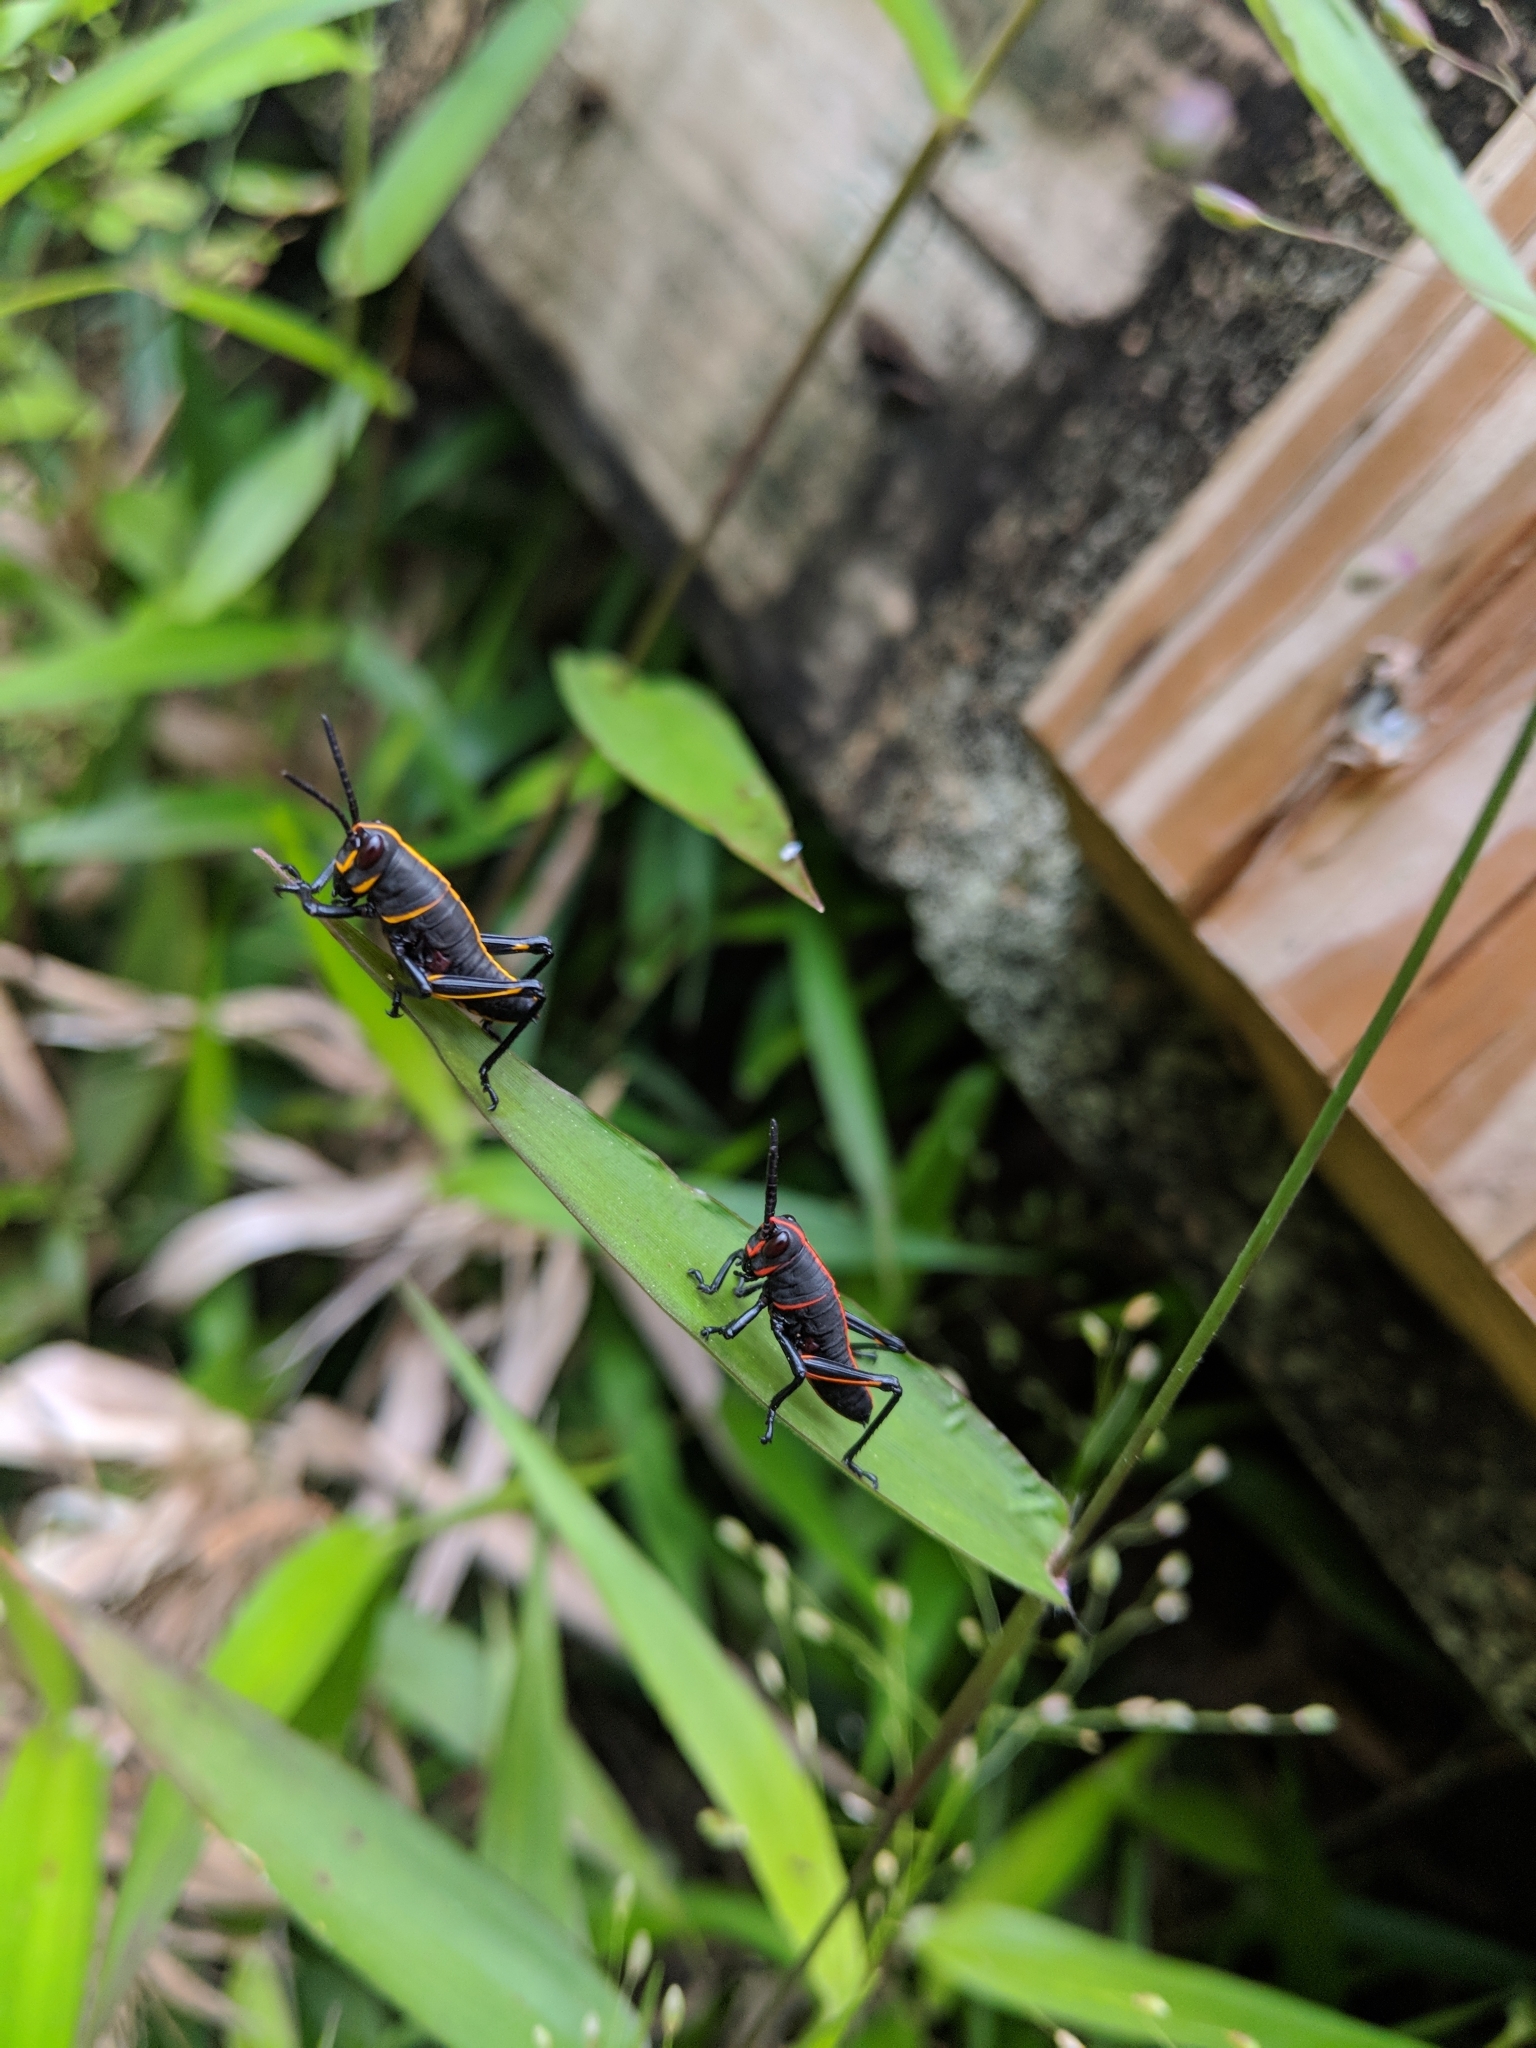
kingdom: Animalia
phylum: Arthropoda
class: Insecta
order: Orthoptera
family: Romaleidae
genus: Romalea
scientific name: Romalea microptera
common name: Eastern lubber grasshopper
